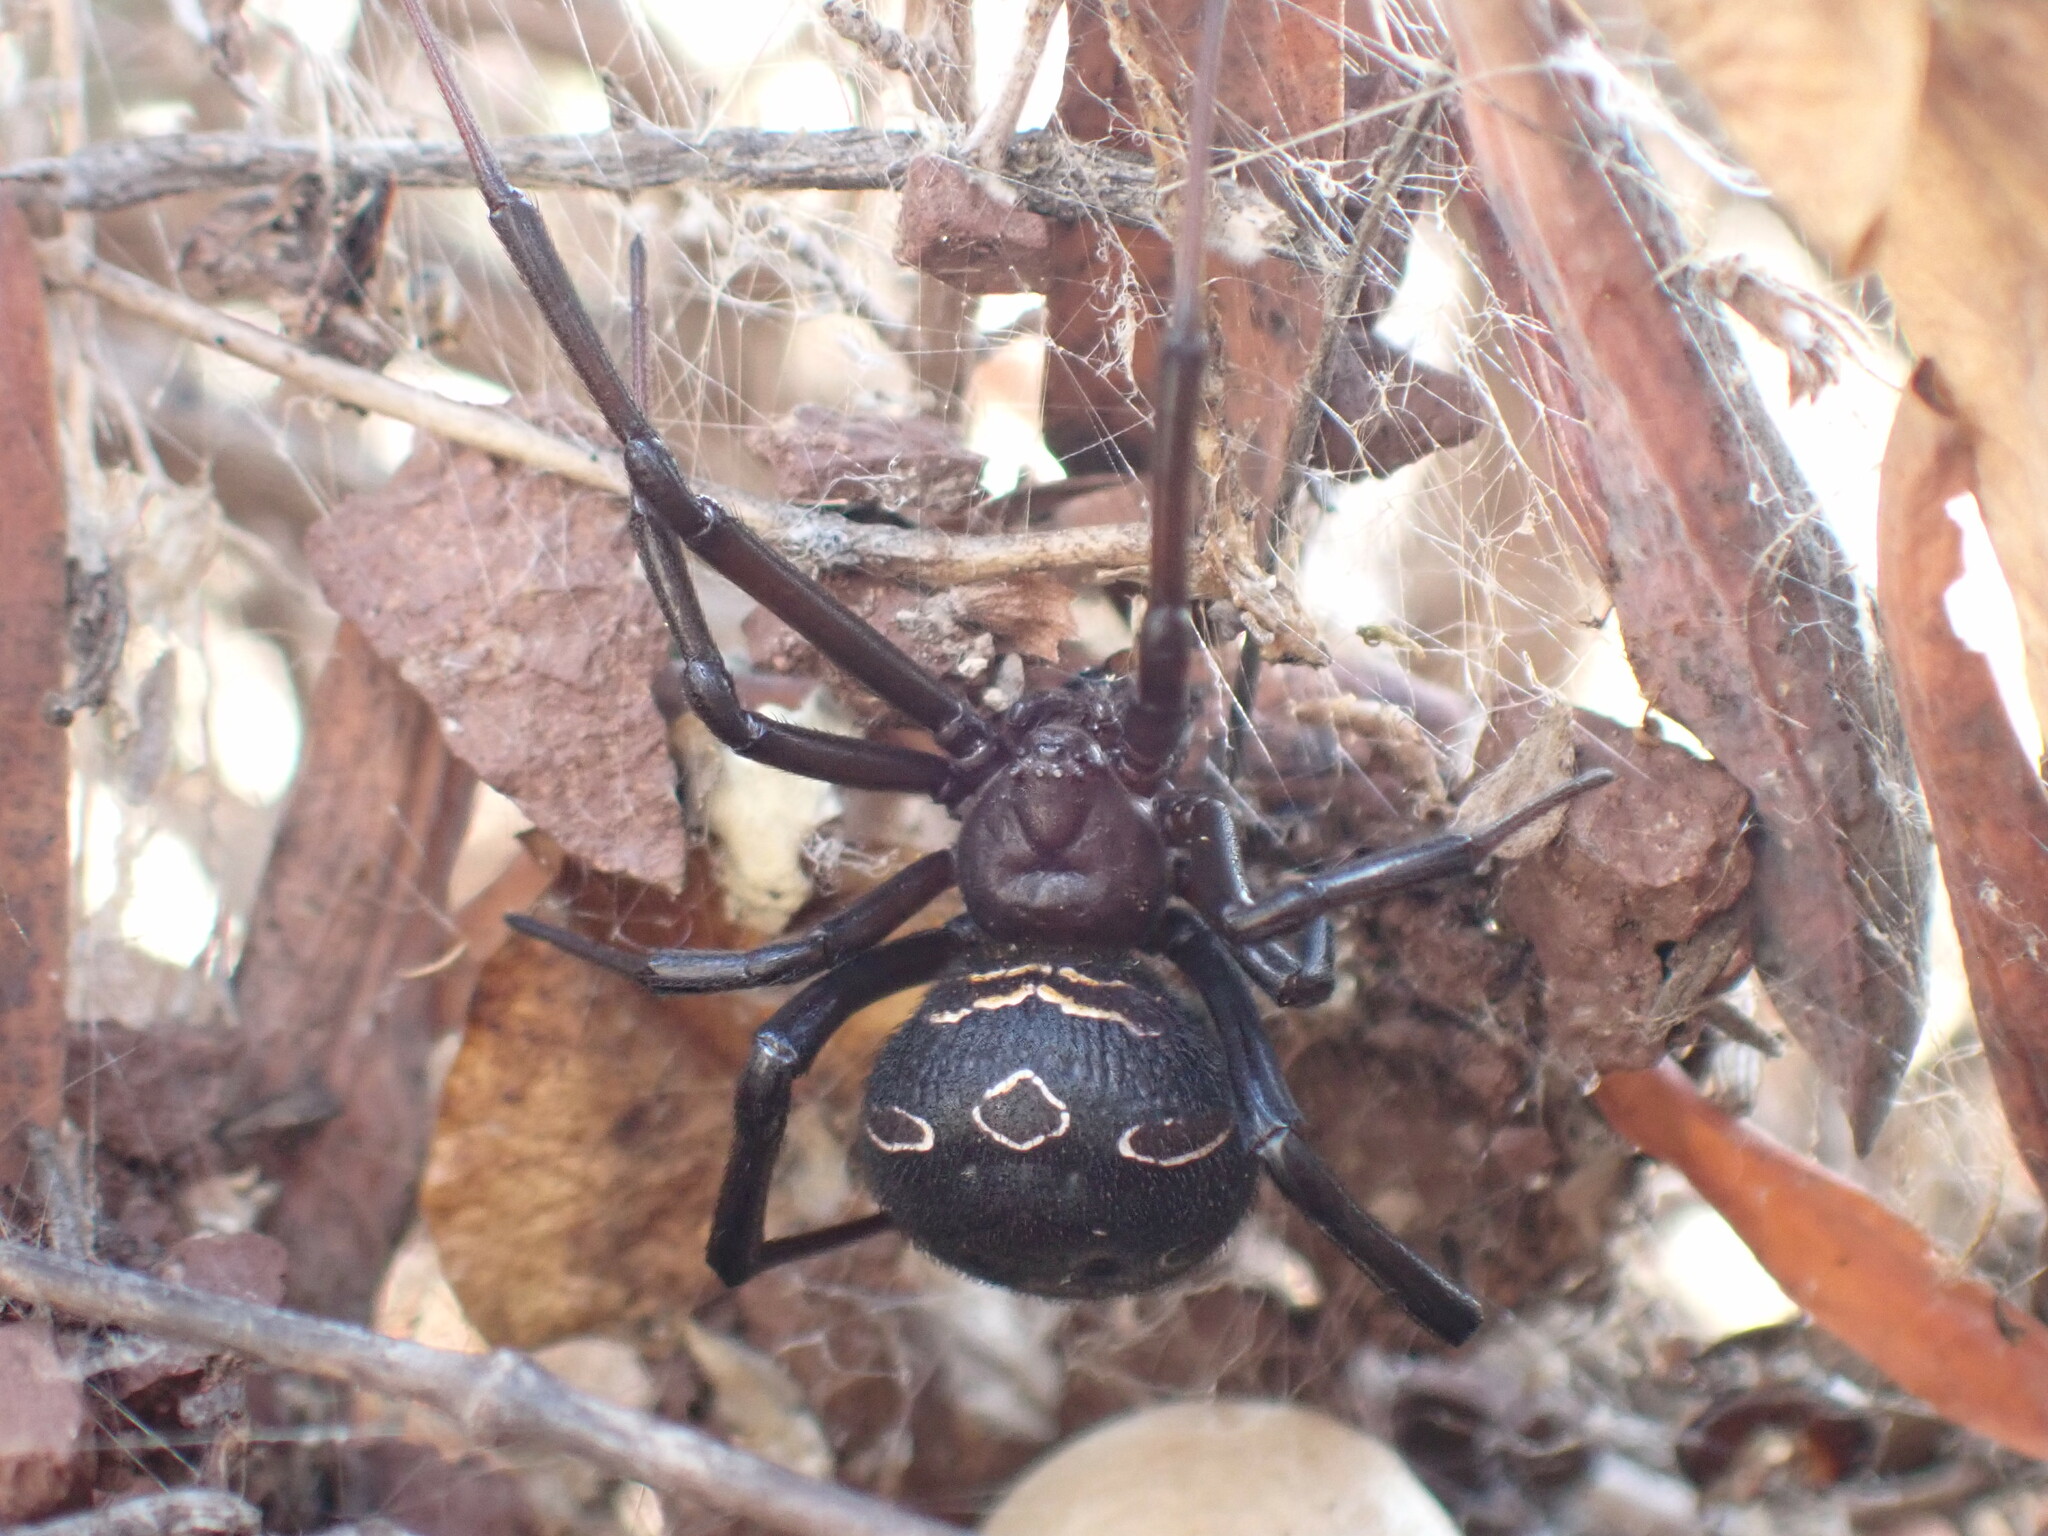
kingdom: Animalia
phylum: Arthropoda
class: Arachnida
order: Araneae
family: Theridiidae
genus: Latrodectus
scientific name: Latrodectus tredecimguttatus
